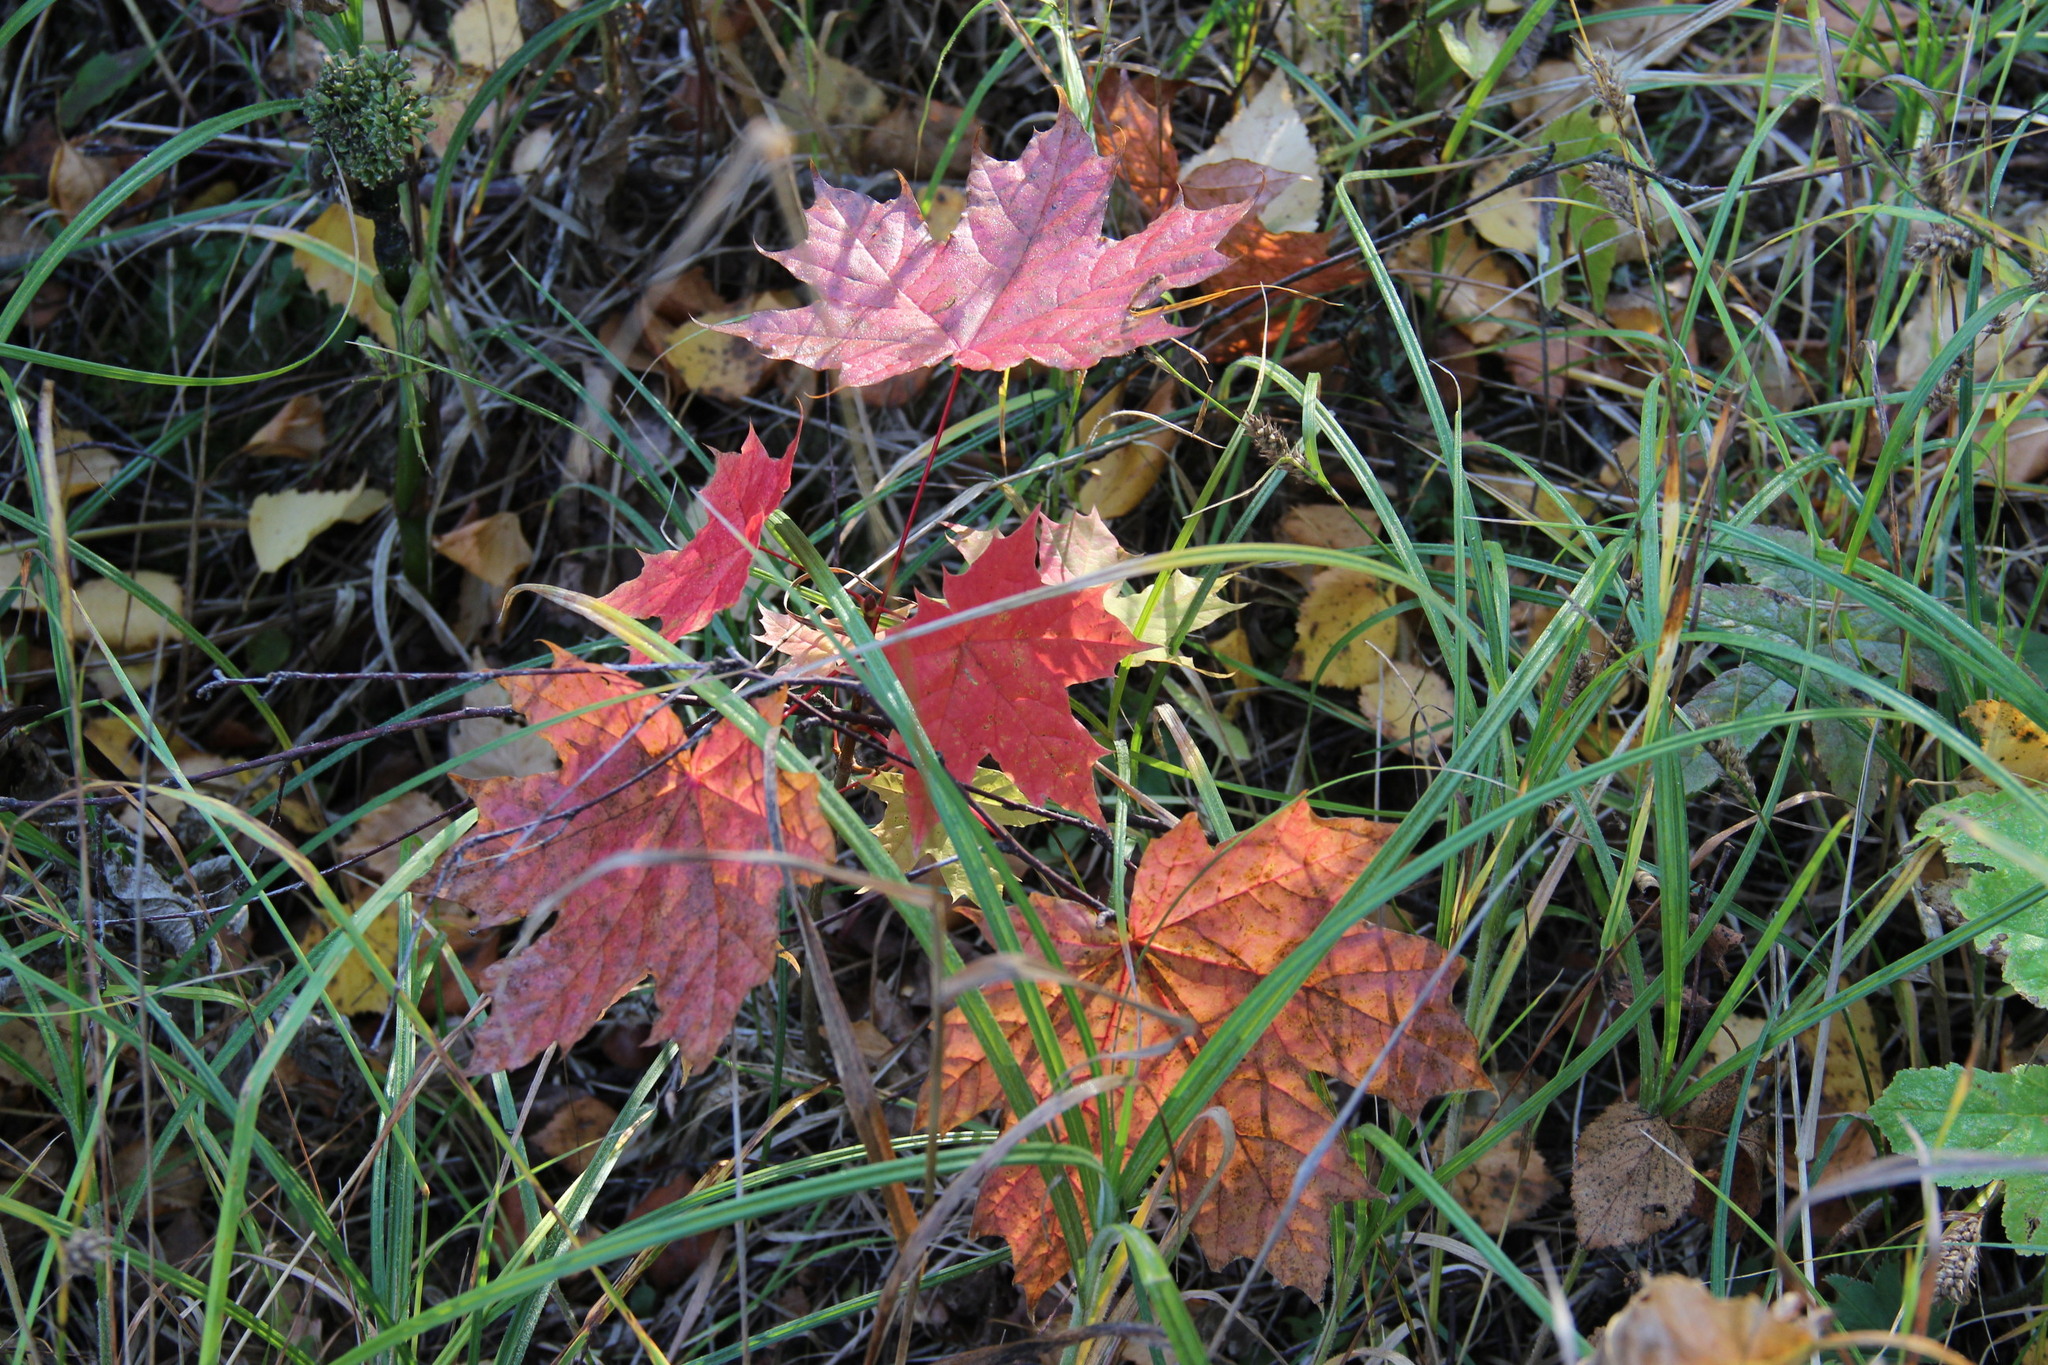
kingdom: Plantae
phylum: Tracheophyta
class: Magnoliopsida
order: Sapindales
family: Sapindaceae
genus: Acer
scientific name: Acer platanoides
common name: Norway maple
